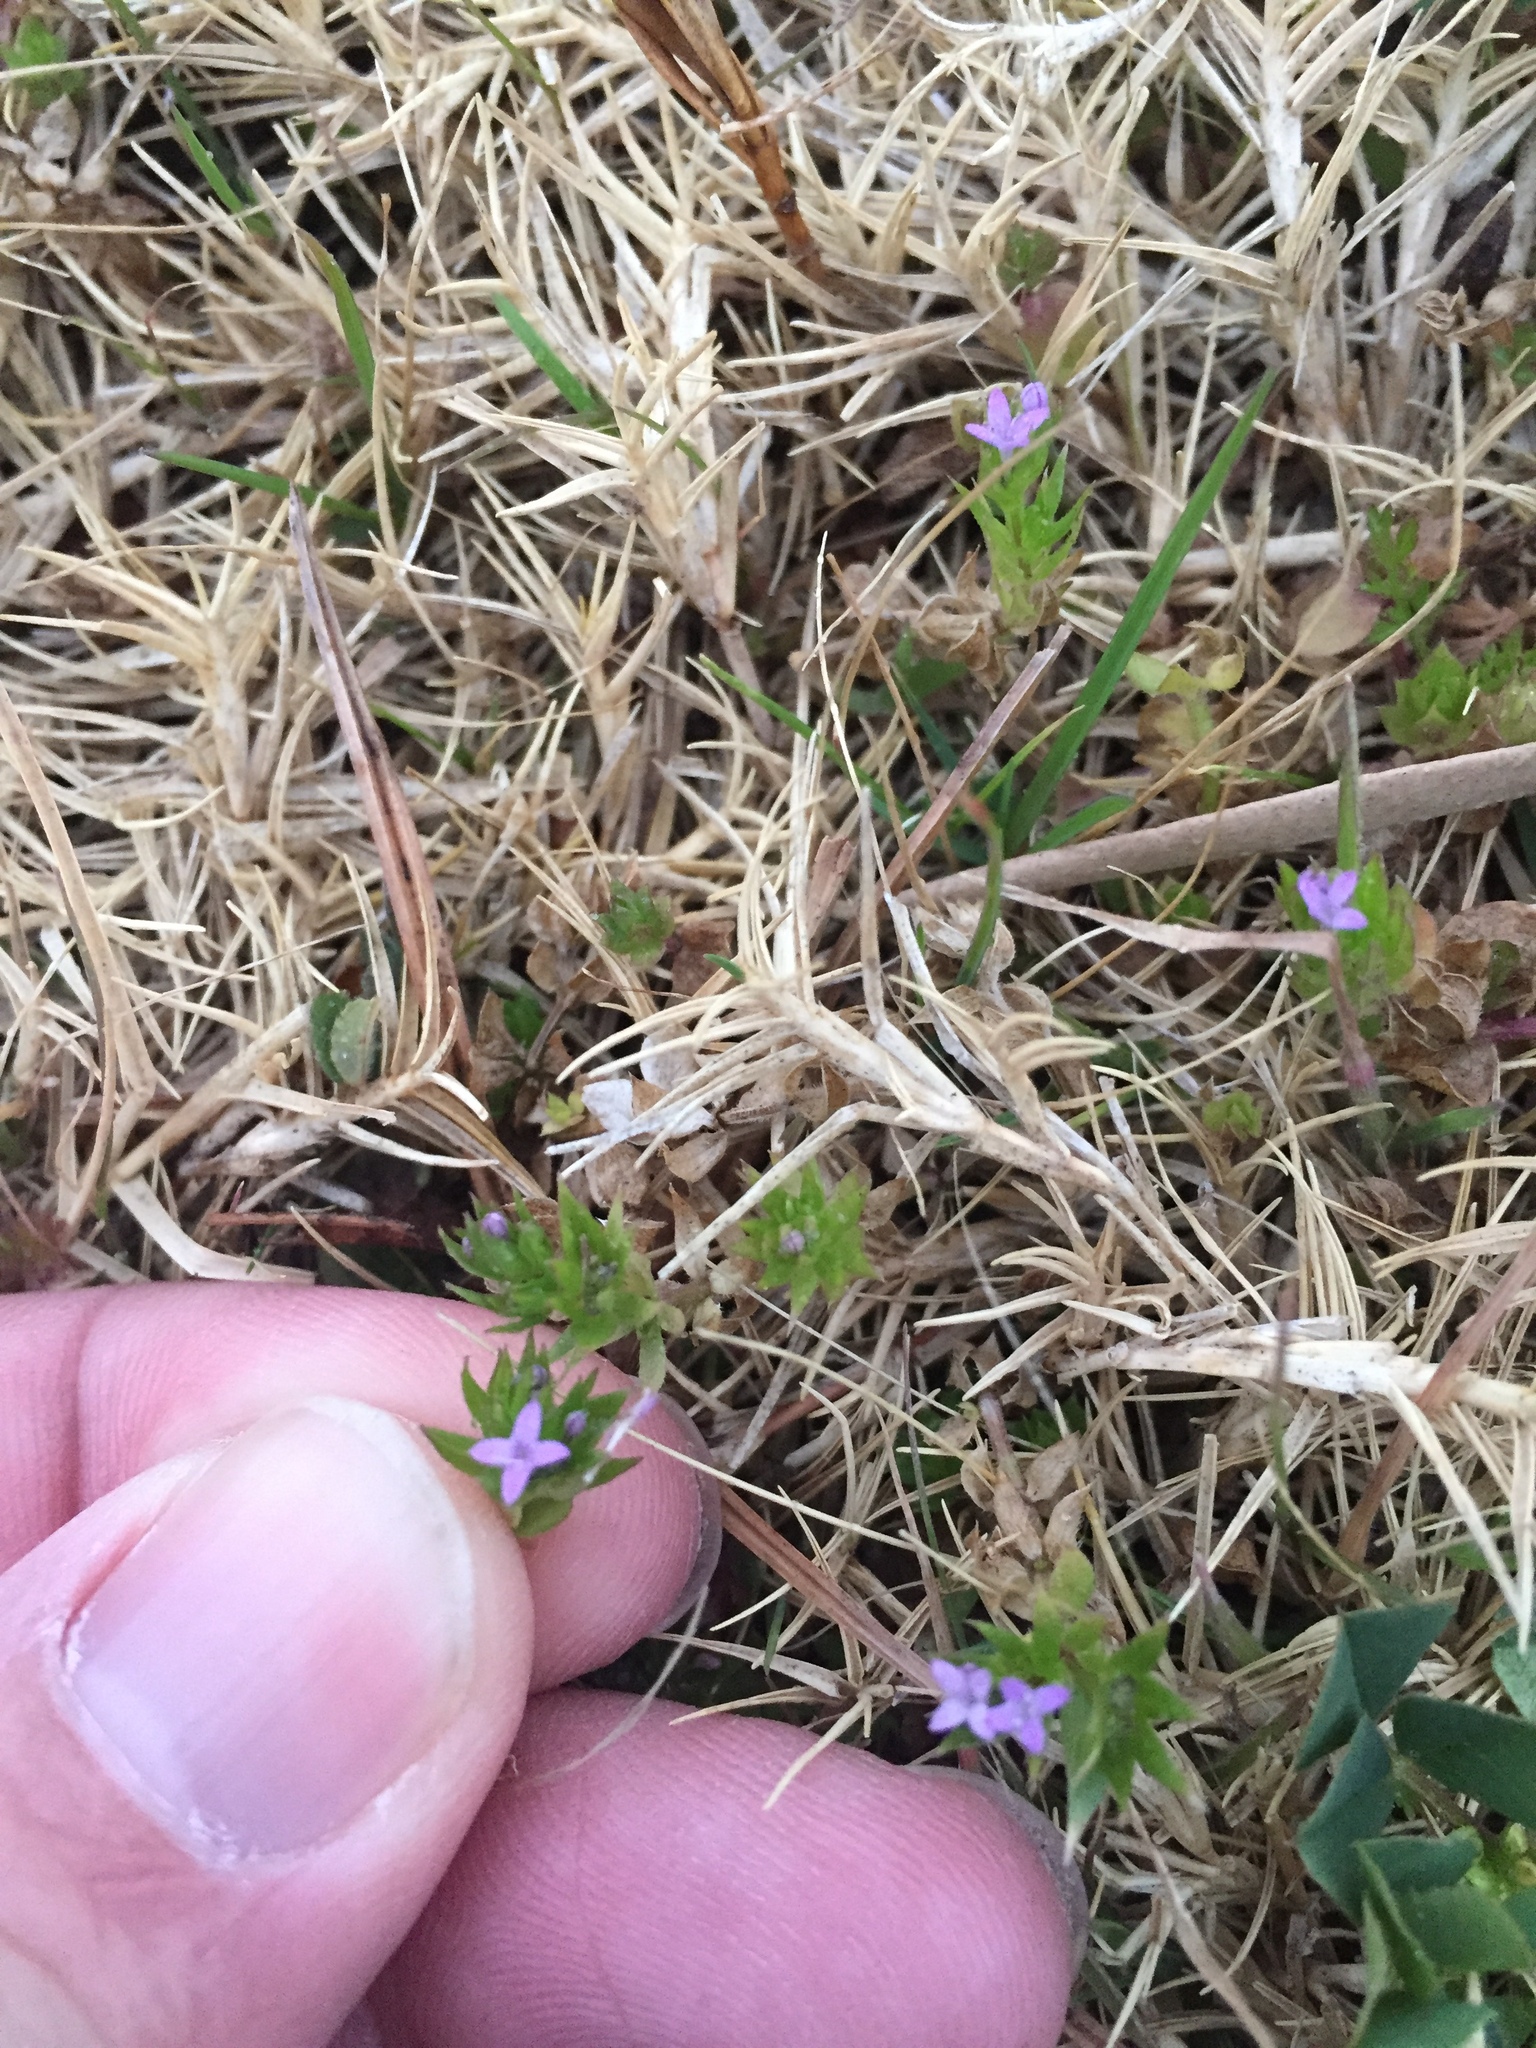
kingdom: Plantae
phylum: Tracheophyta
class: Magnoliopsida
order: Gentianales
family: Rubiaceae
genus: Sherardia
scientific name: Sherardia arvensis
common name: Field madder
